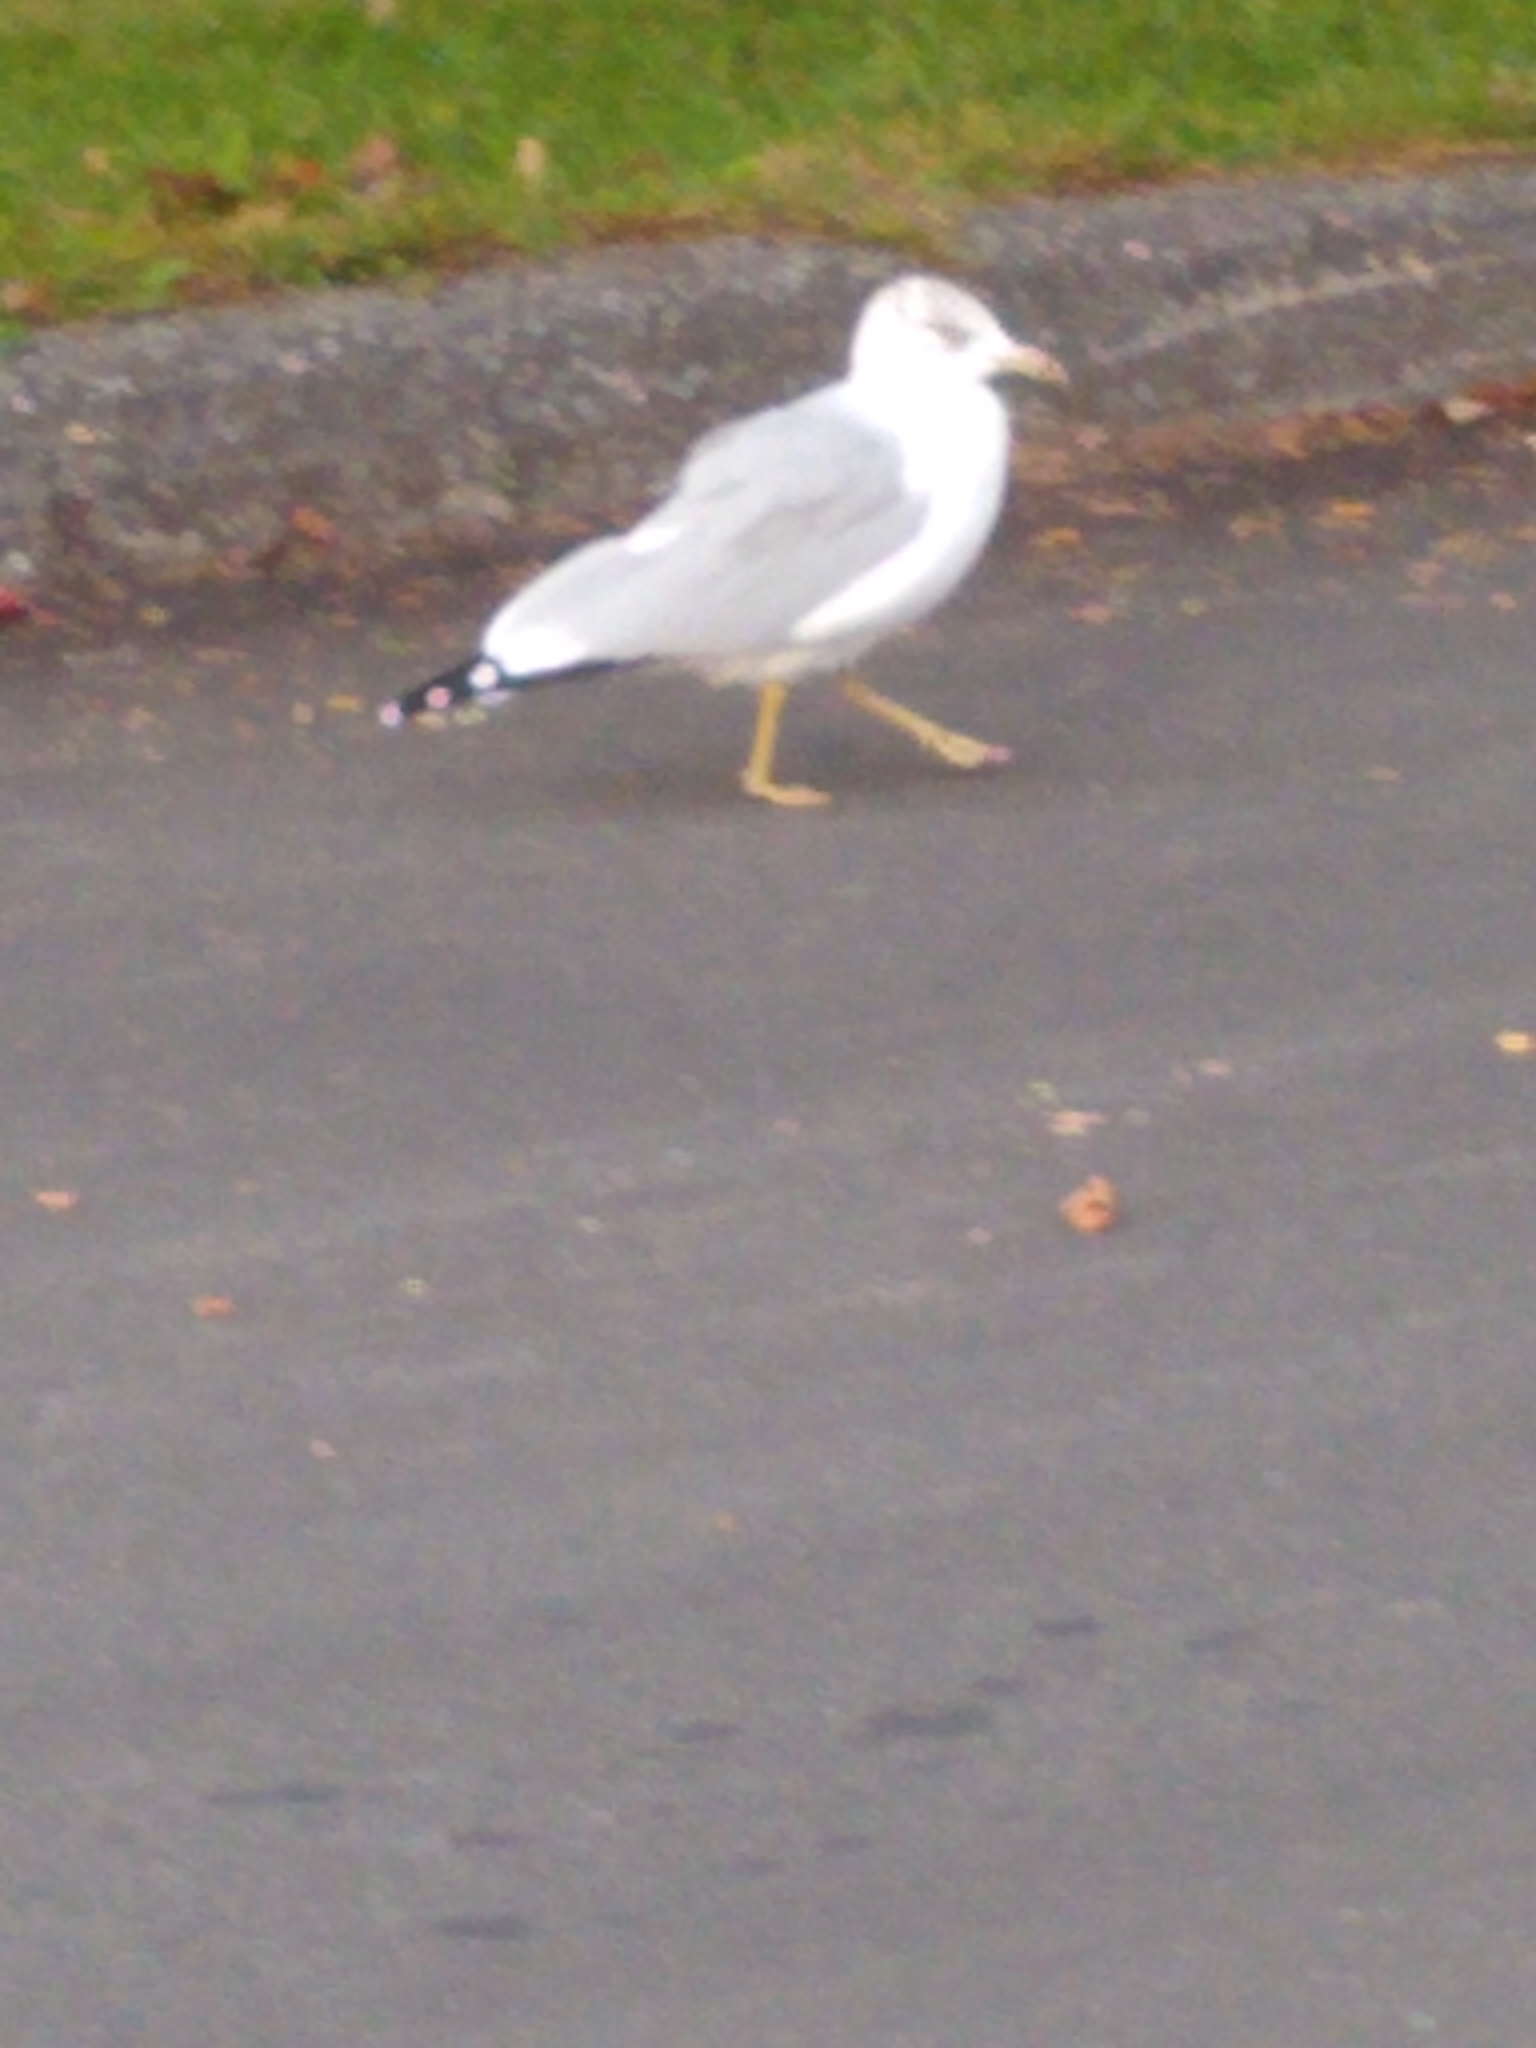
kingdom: Animalia
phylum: Chordata
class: Aves
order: Charadriiformes
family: Laridae
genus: Larus
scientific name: Larus delawarensis
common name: Ring-billed gull
